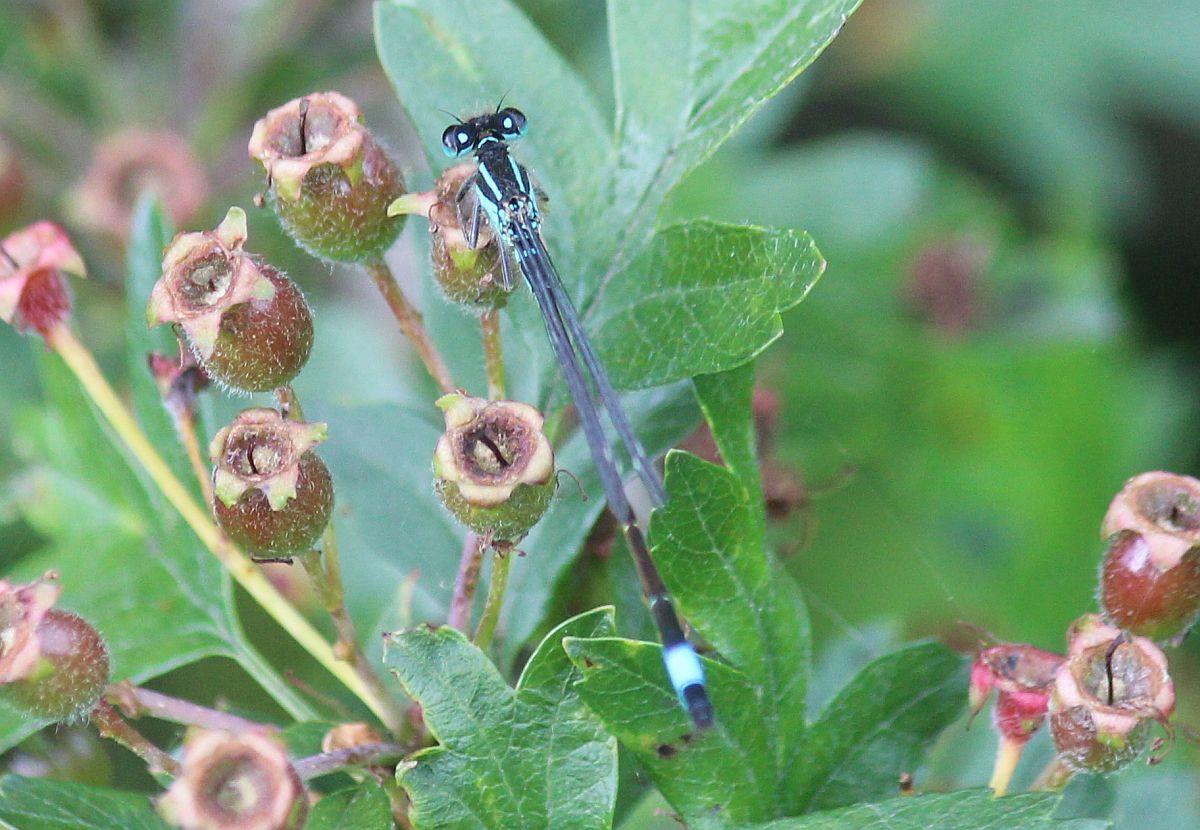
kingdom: Animalia
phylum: Arthropoda
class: Insecta
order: Odonata
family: Coenagrionidae
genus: Ischnura
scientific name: Ischnura elegans
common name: Blue-tailed damselfly
